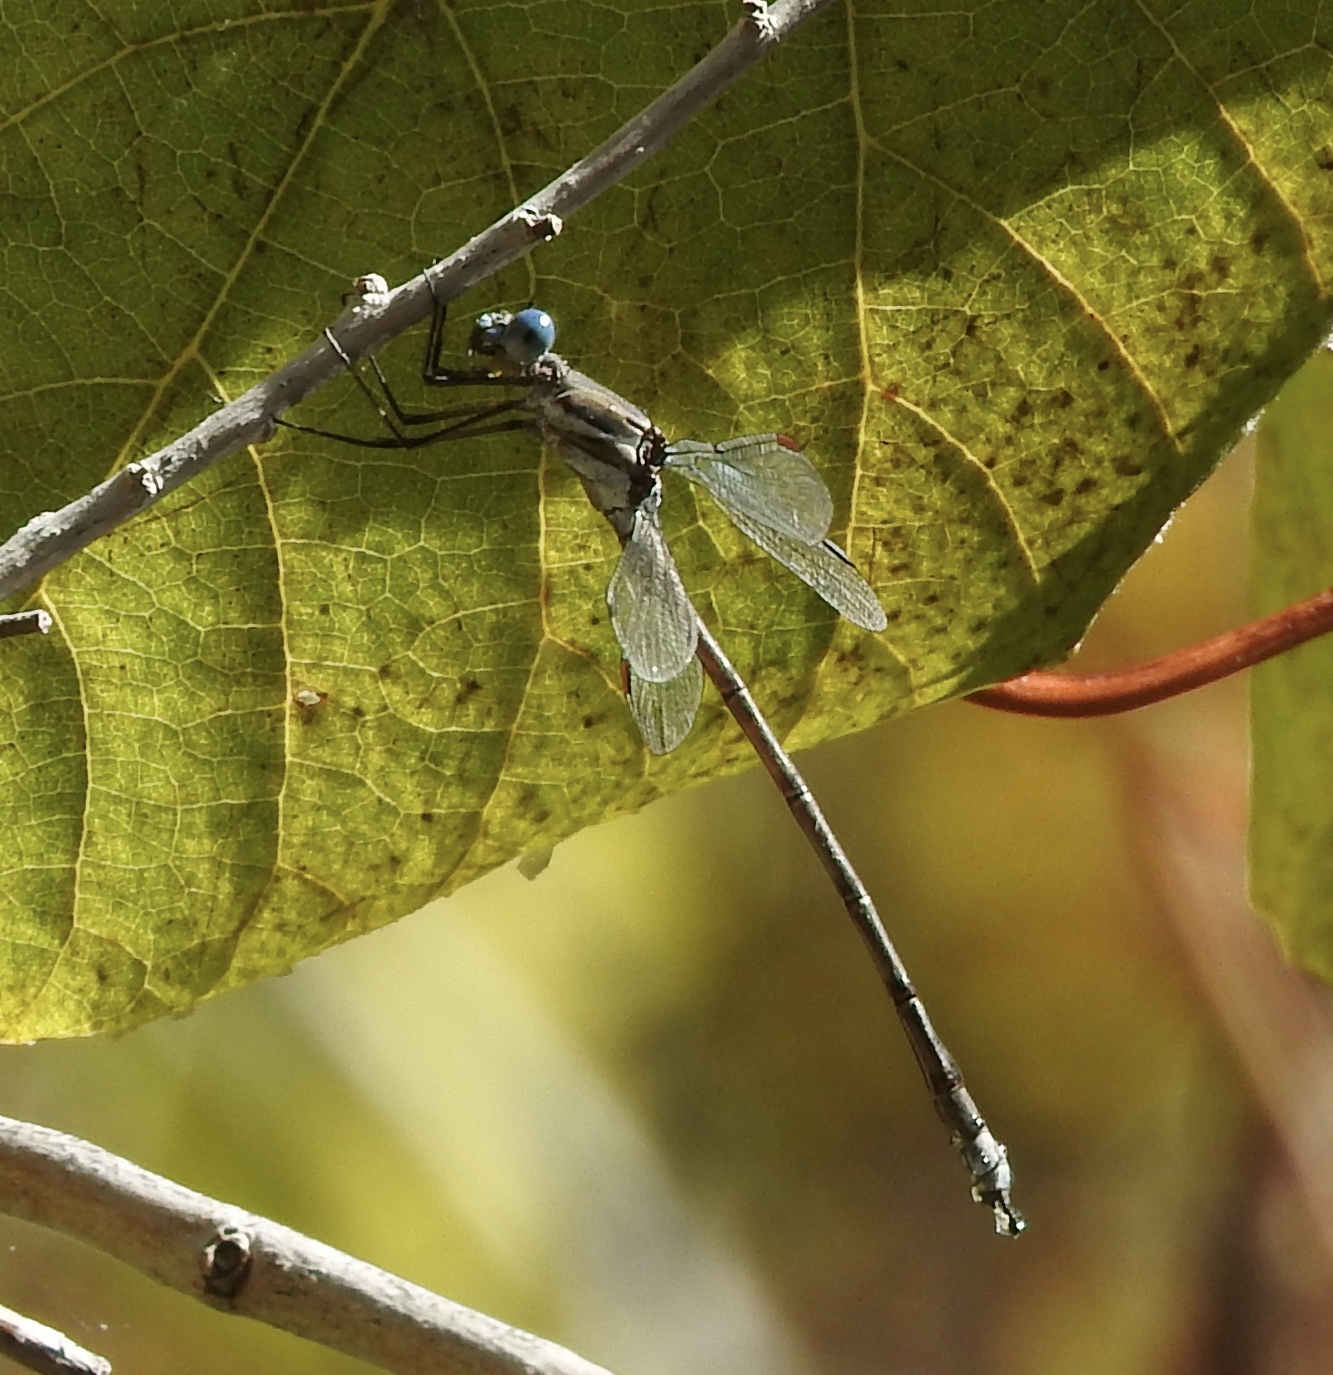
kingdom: Animalia
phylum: Arthropoda
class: Insecta
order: Odonata
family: Lestidae
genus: Archilestes
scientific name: Archilestes californicus
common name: California spreadwing
